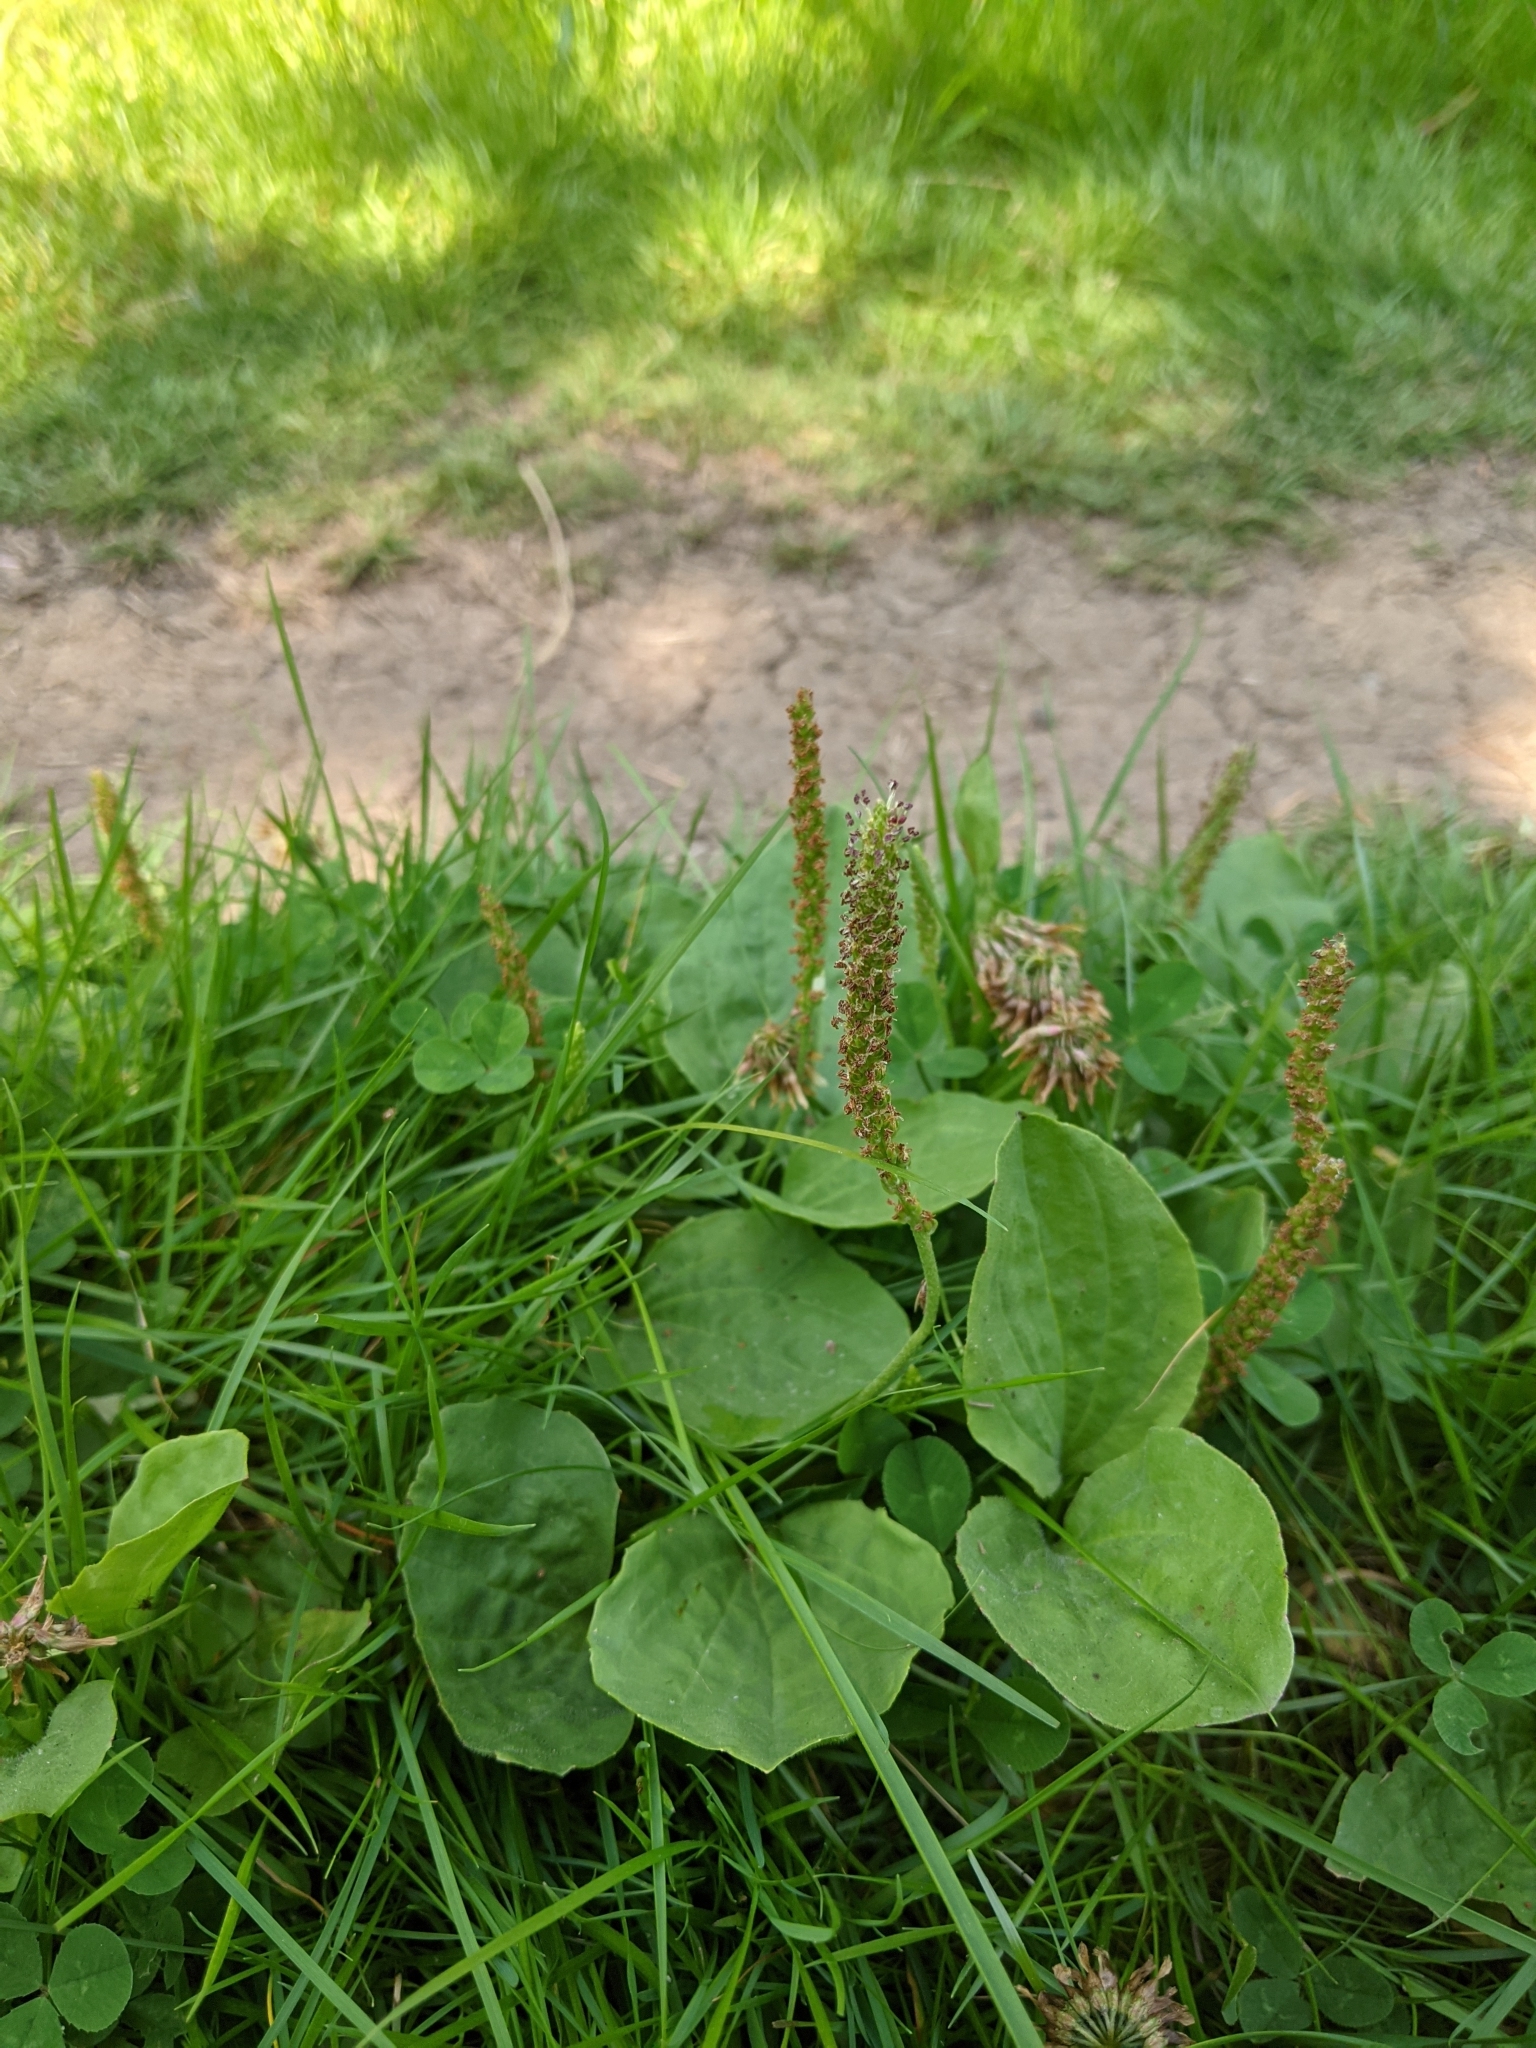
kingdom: Plantae
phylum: Tracheophyta
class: Magnoliopsida
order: Lamiales
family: Plantaginaceae
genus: Plantago
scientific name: Plantago major
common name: Common plantain
